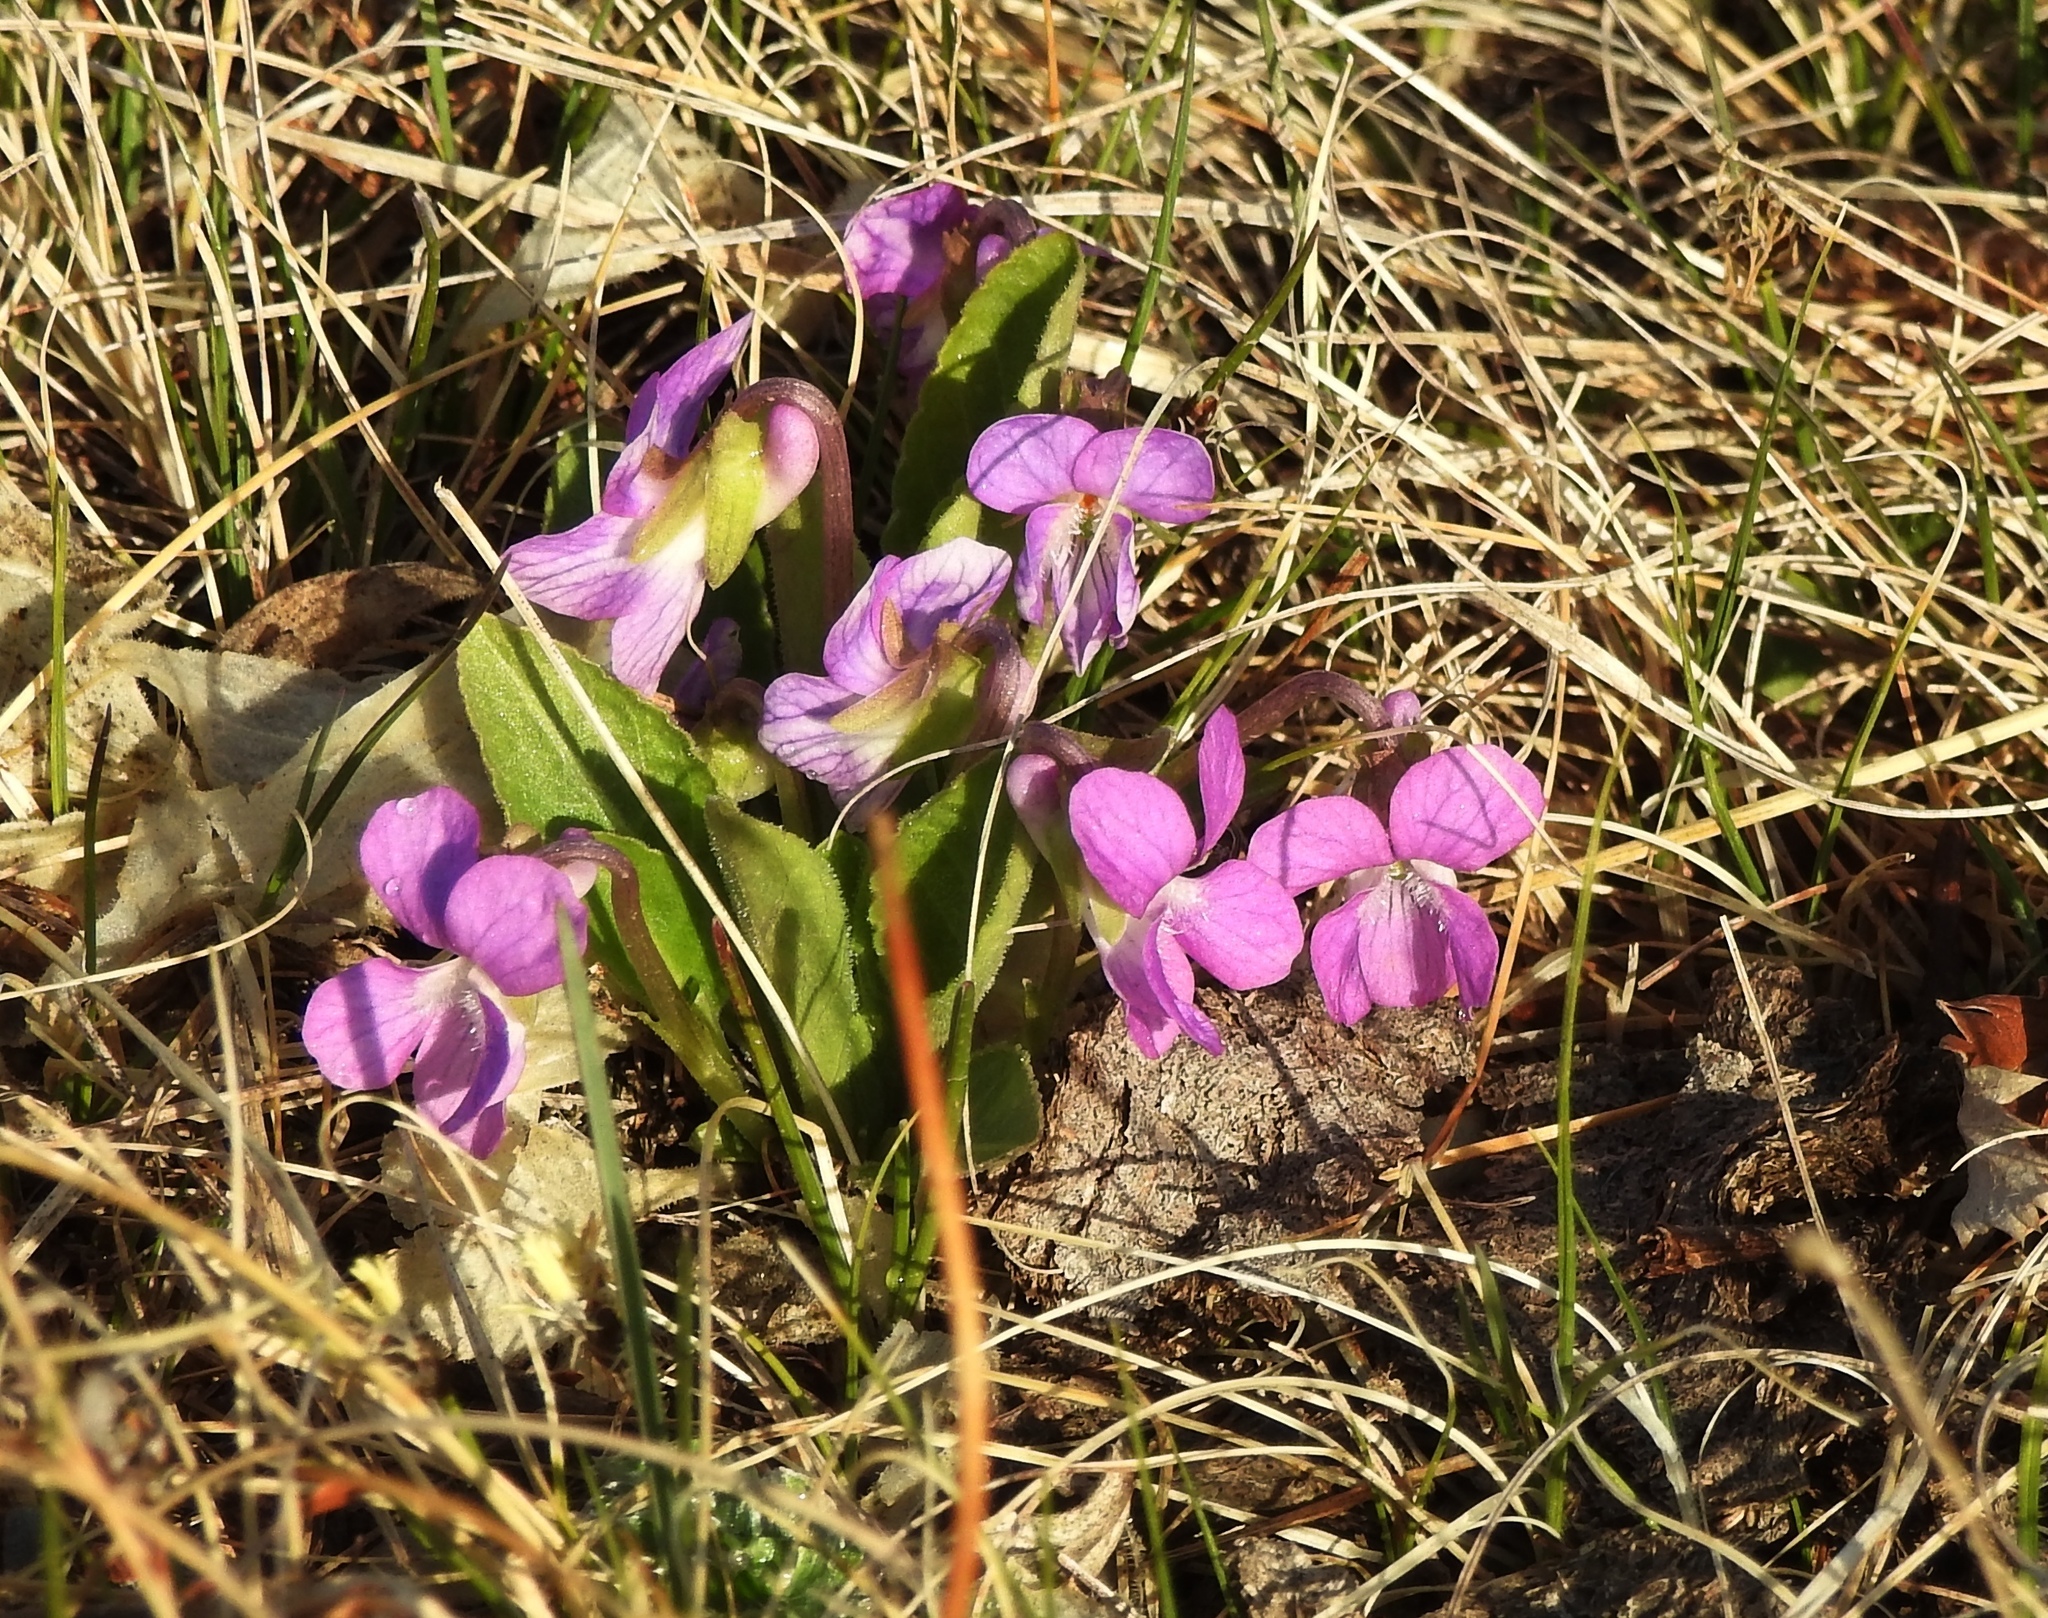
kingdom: Plantae
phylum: Tracheophyta
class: Magnoliopsida
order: Malpighiales
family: Violaceae
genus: Viola
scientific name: Viola gmeliniana
